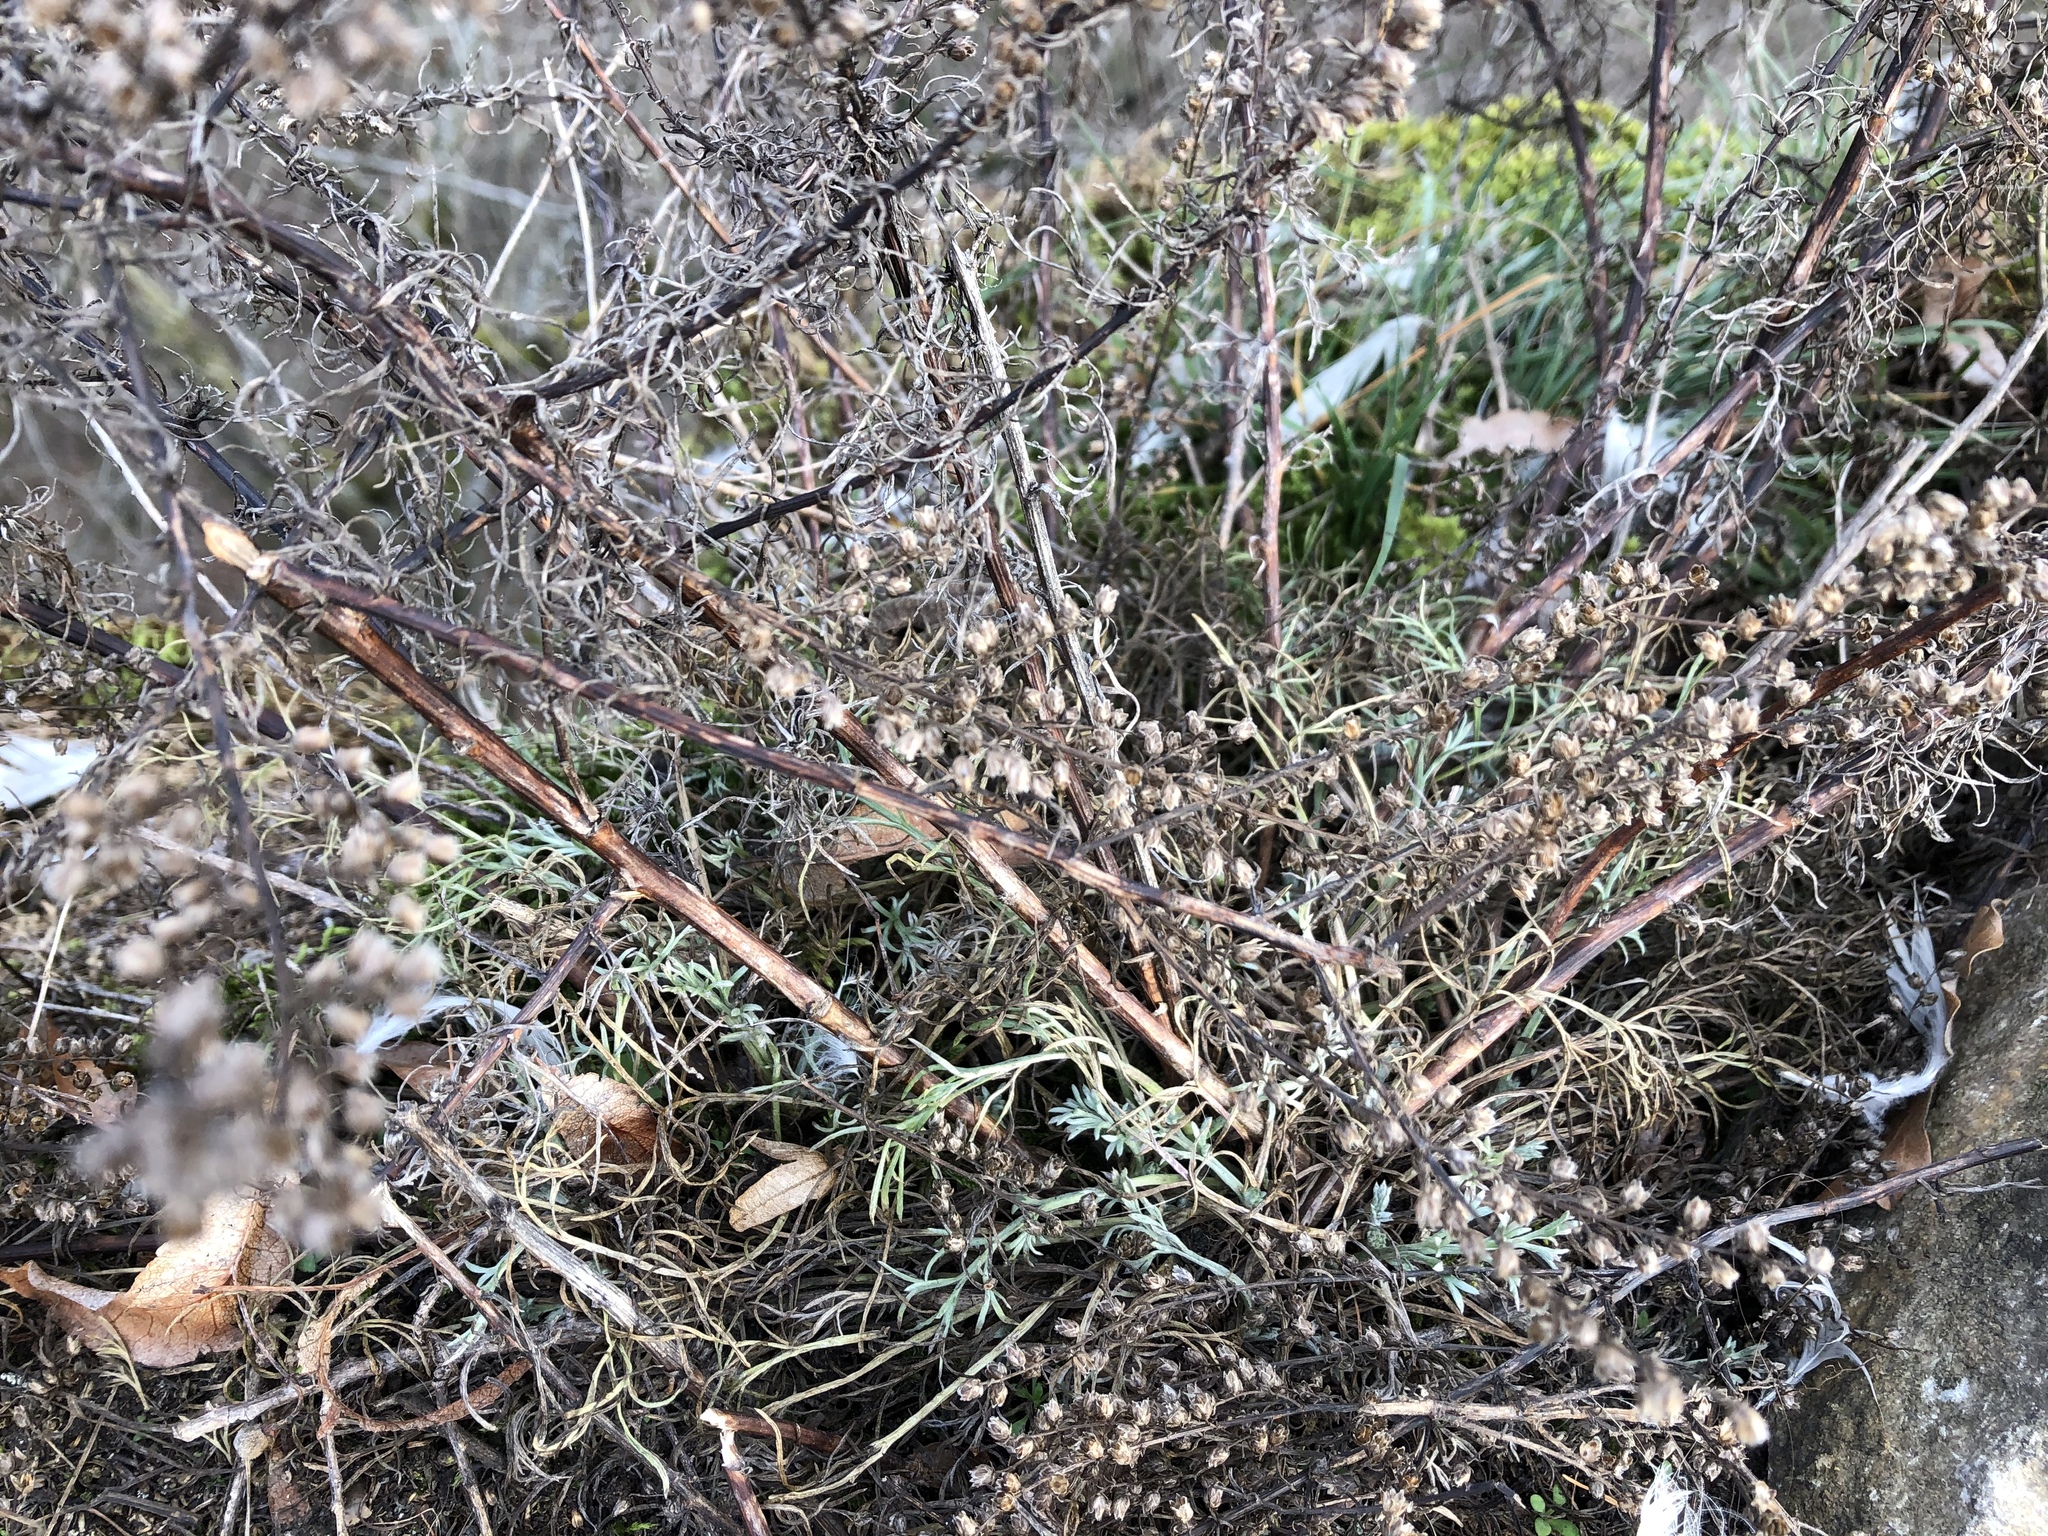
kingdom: Plantae
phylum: Tracheophyta
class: Magnoliopsida
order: Asterales
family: Asteraceae
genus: Artemisia
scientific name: Artemisia campestris
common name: Field wormwood
